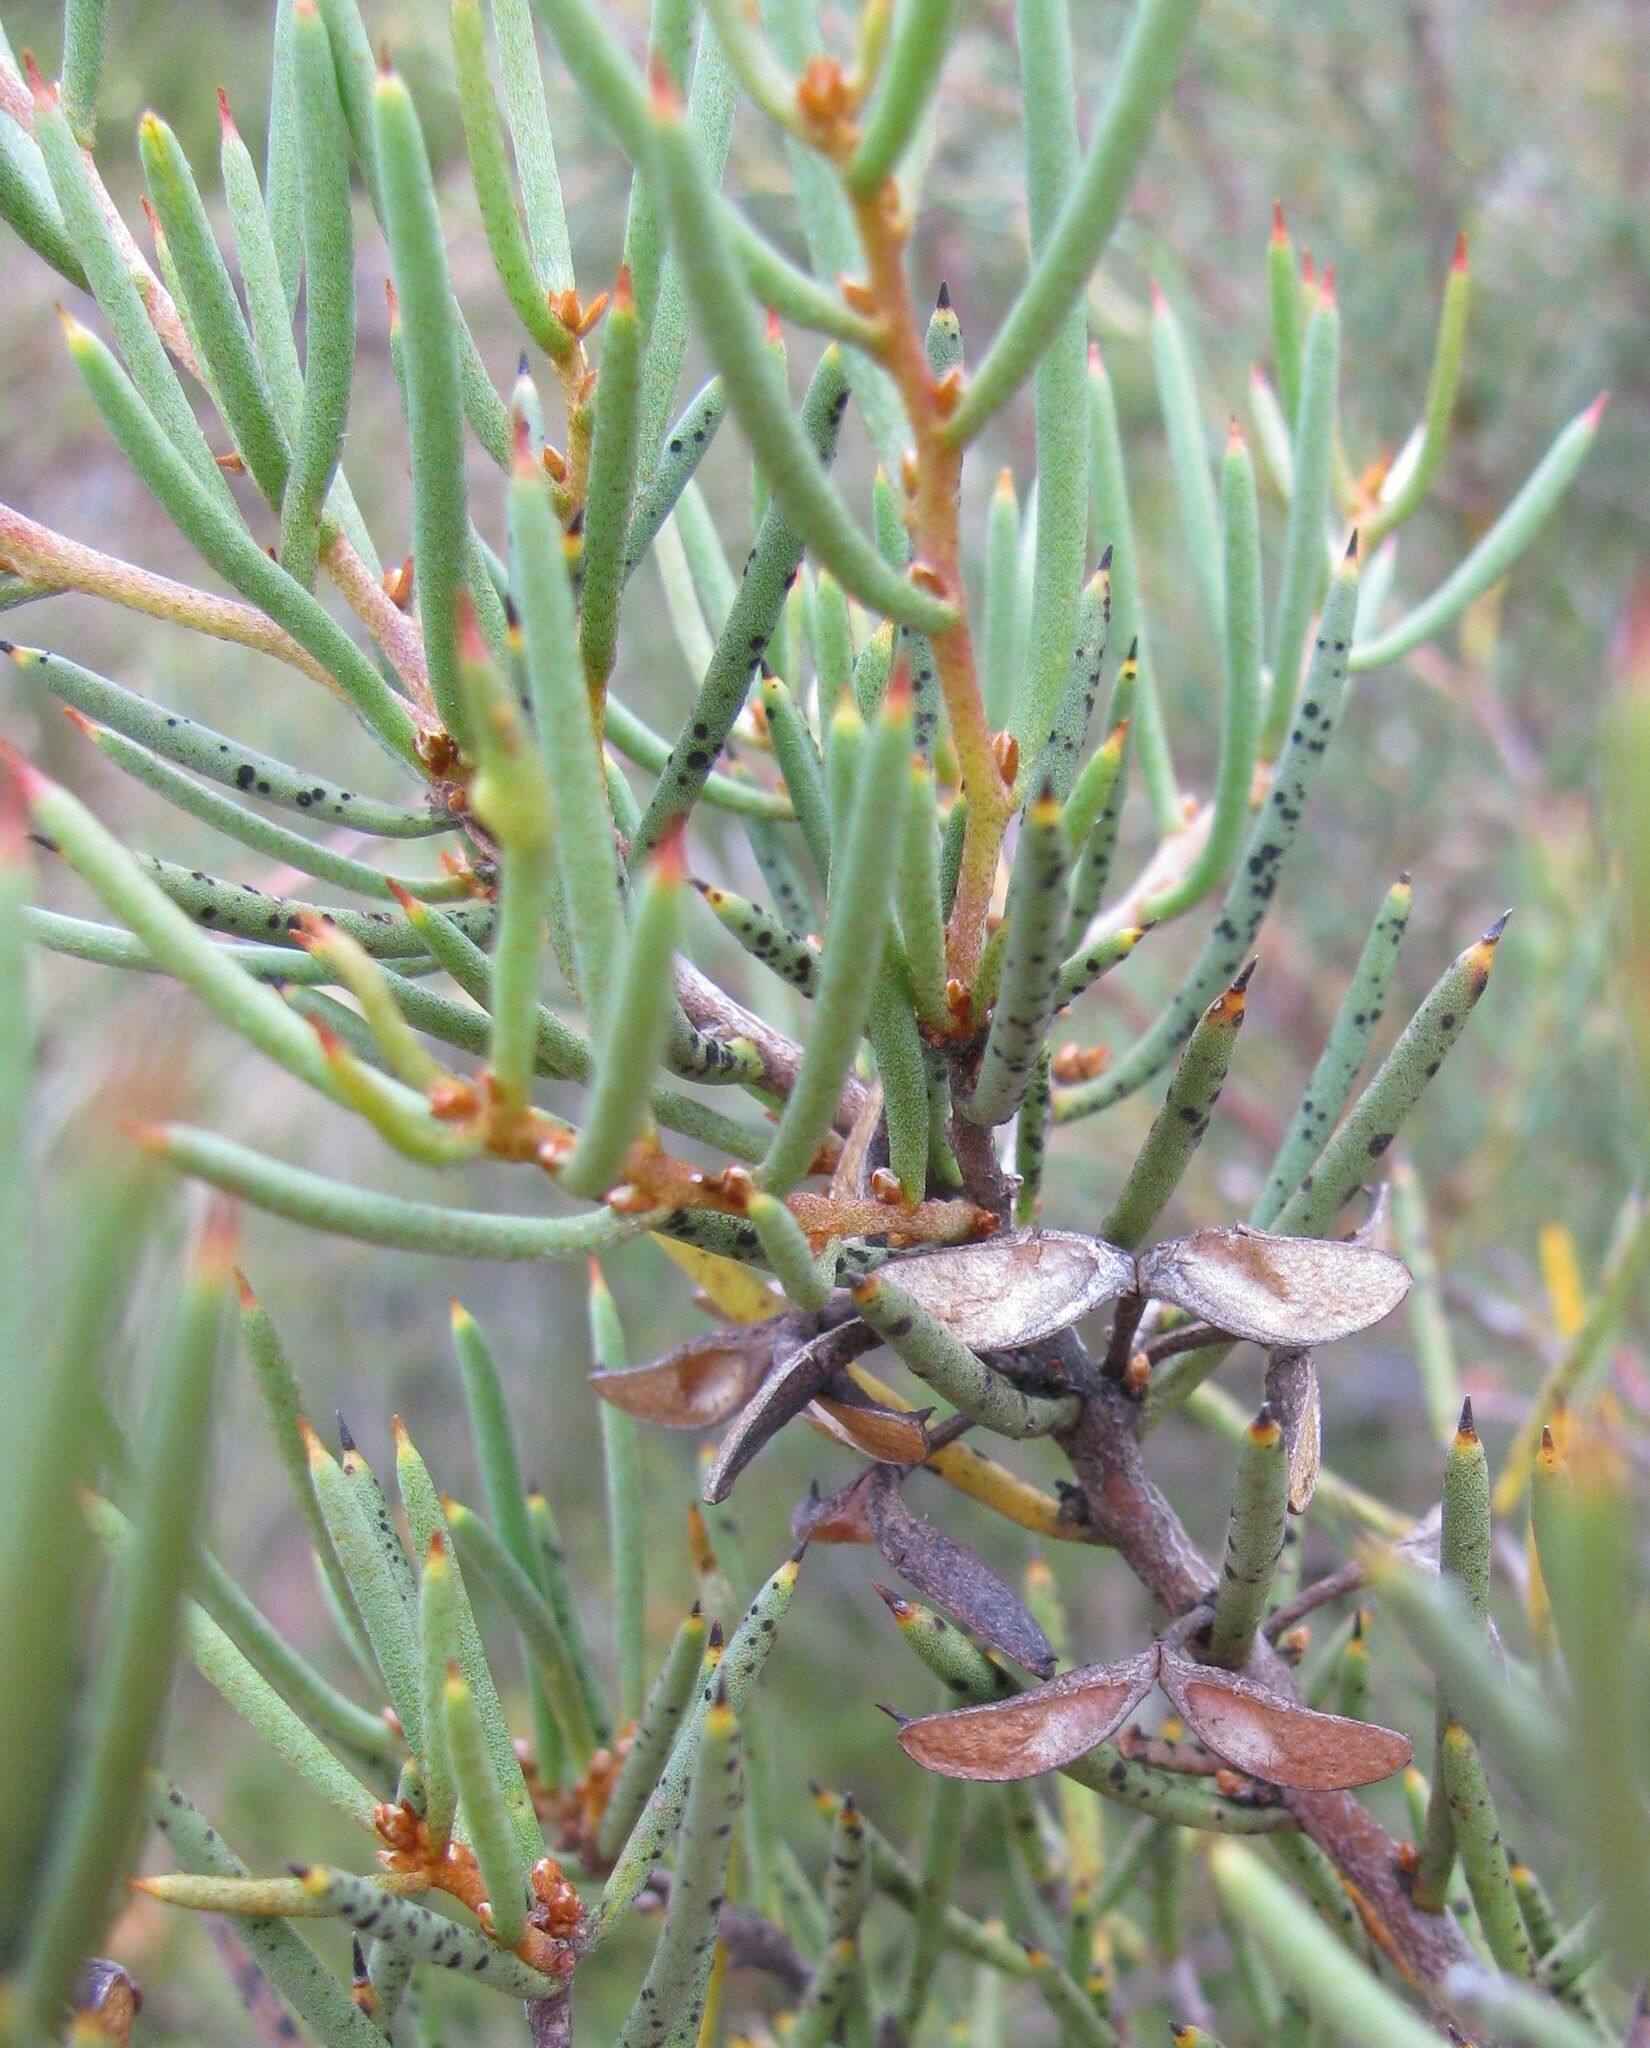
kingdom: Plantae
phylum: Tracheophyta
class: Magnoliopsida
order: Proteales
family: Proteaceae
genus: Hakea
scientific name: Hakea microcarpa
